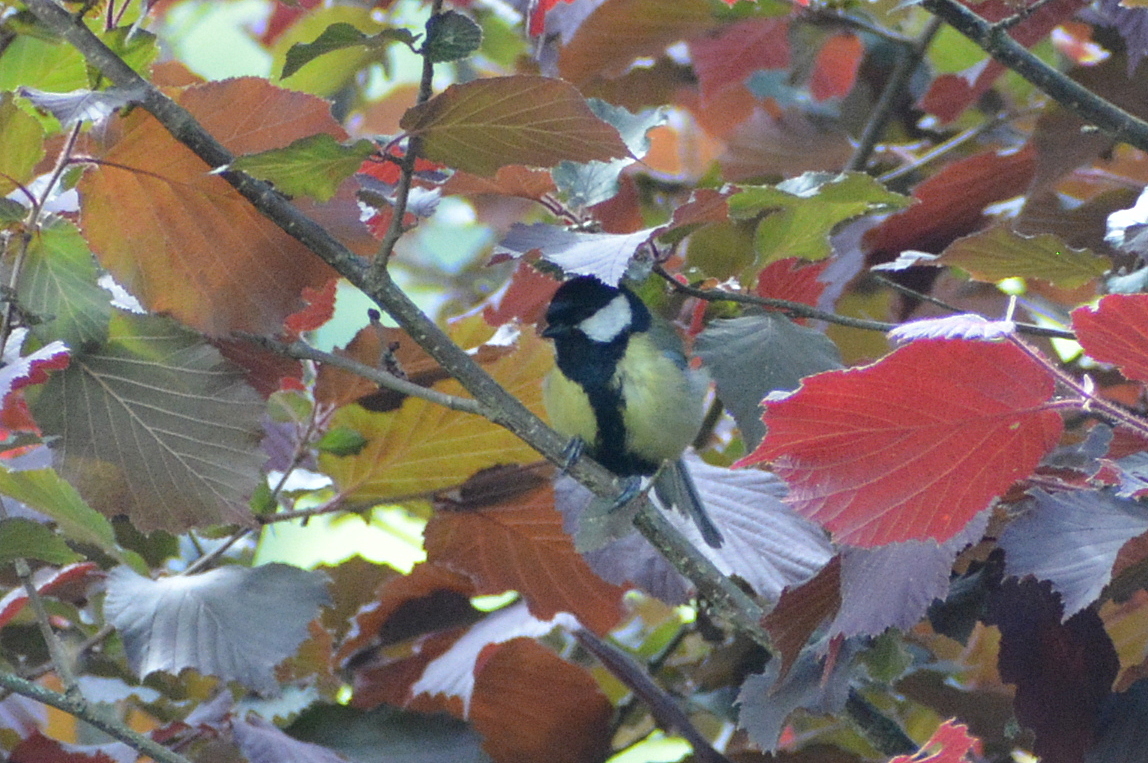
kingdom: Animalia
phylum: Chordata
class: Aves
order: Passeriformes
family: Paridae
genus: Parus
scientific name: Parus major
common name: Great tit
